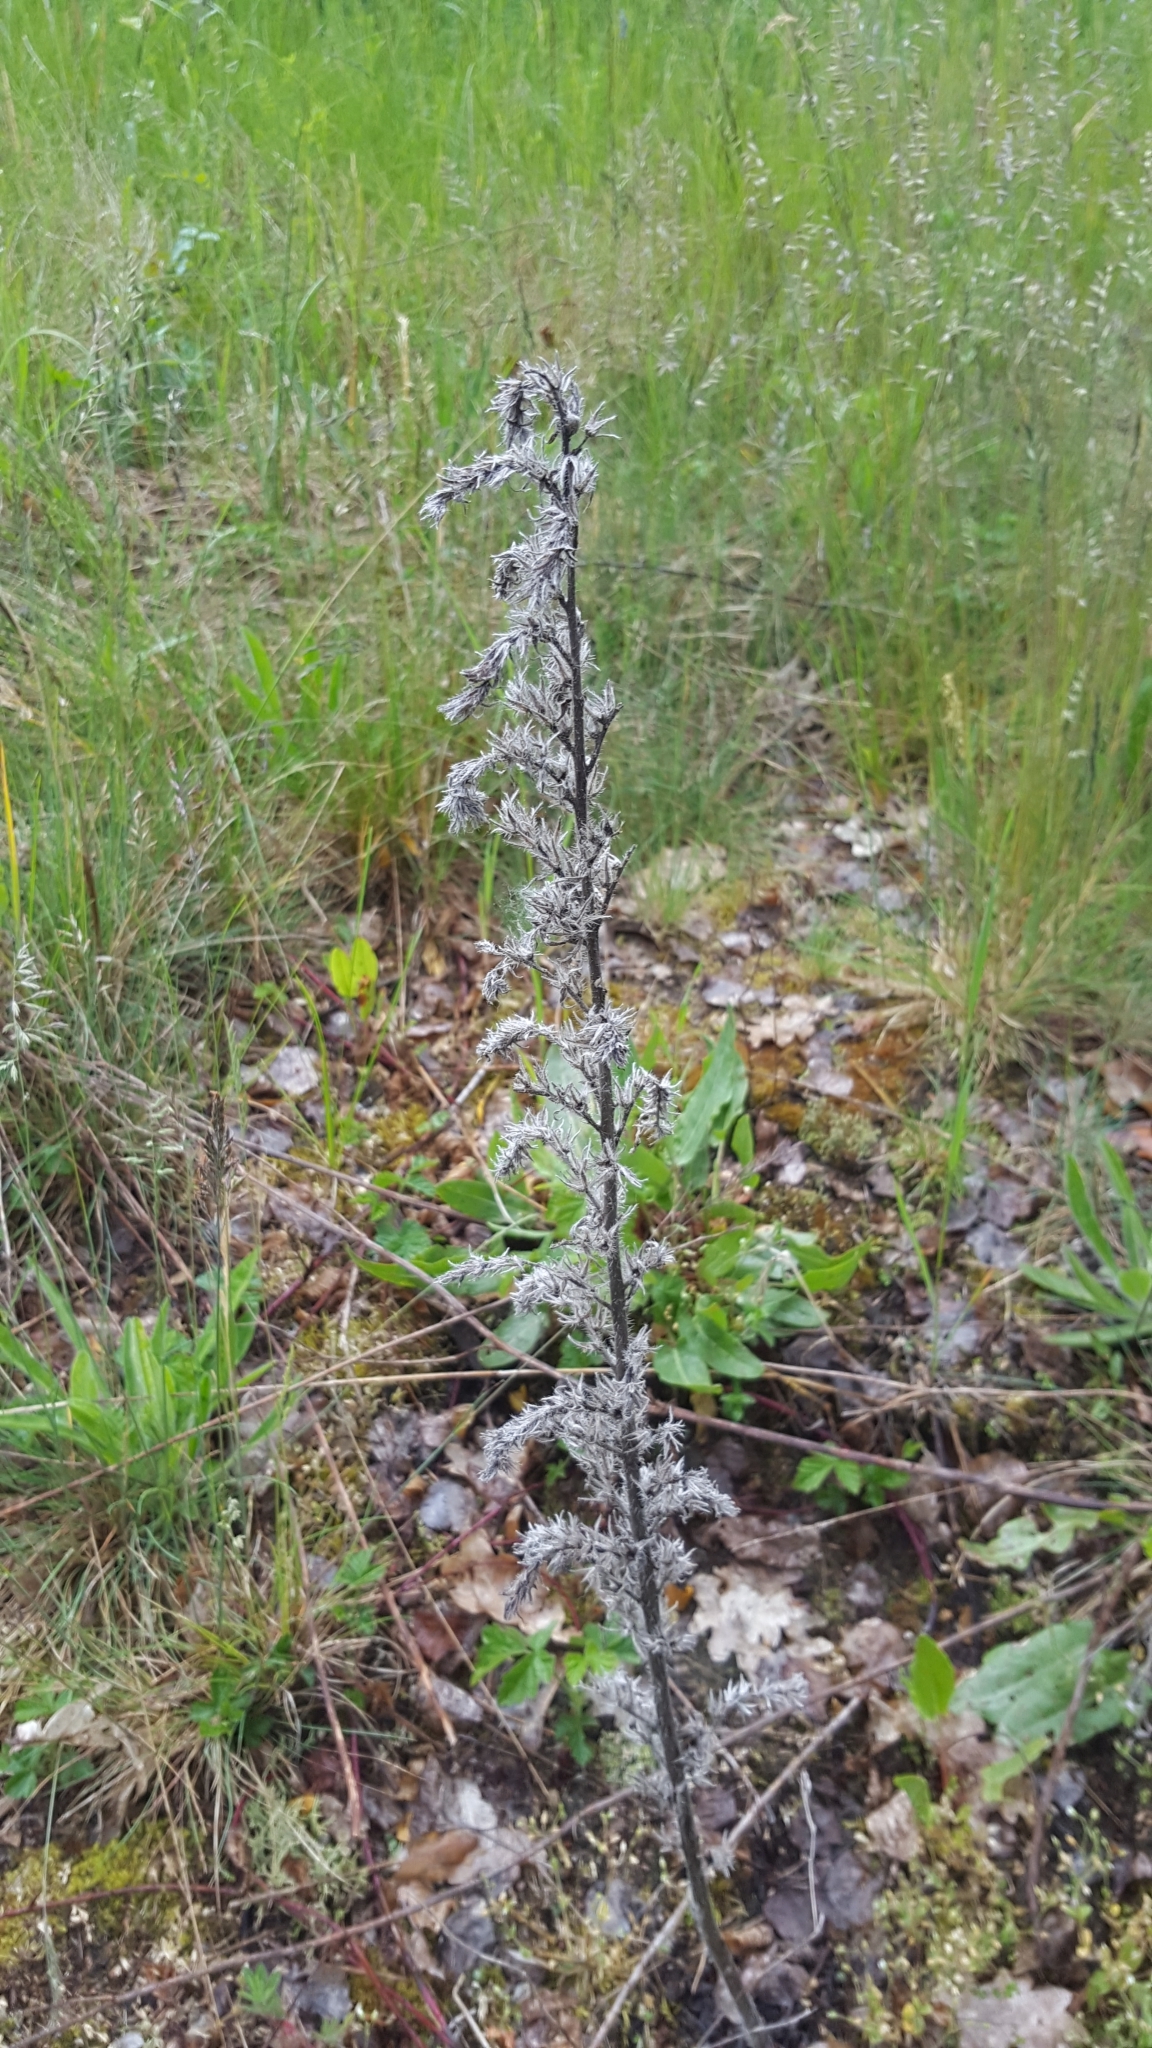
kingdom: Plantae
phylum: Tracheophyta
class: Magnoliopsida
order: Boraginales
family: Boraginaceae
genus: Echium
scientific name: Echium vulgare
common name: Common viper's bugloss
